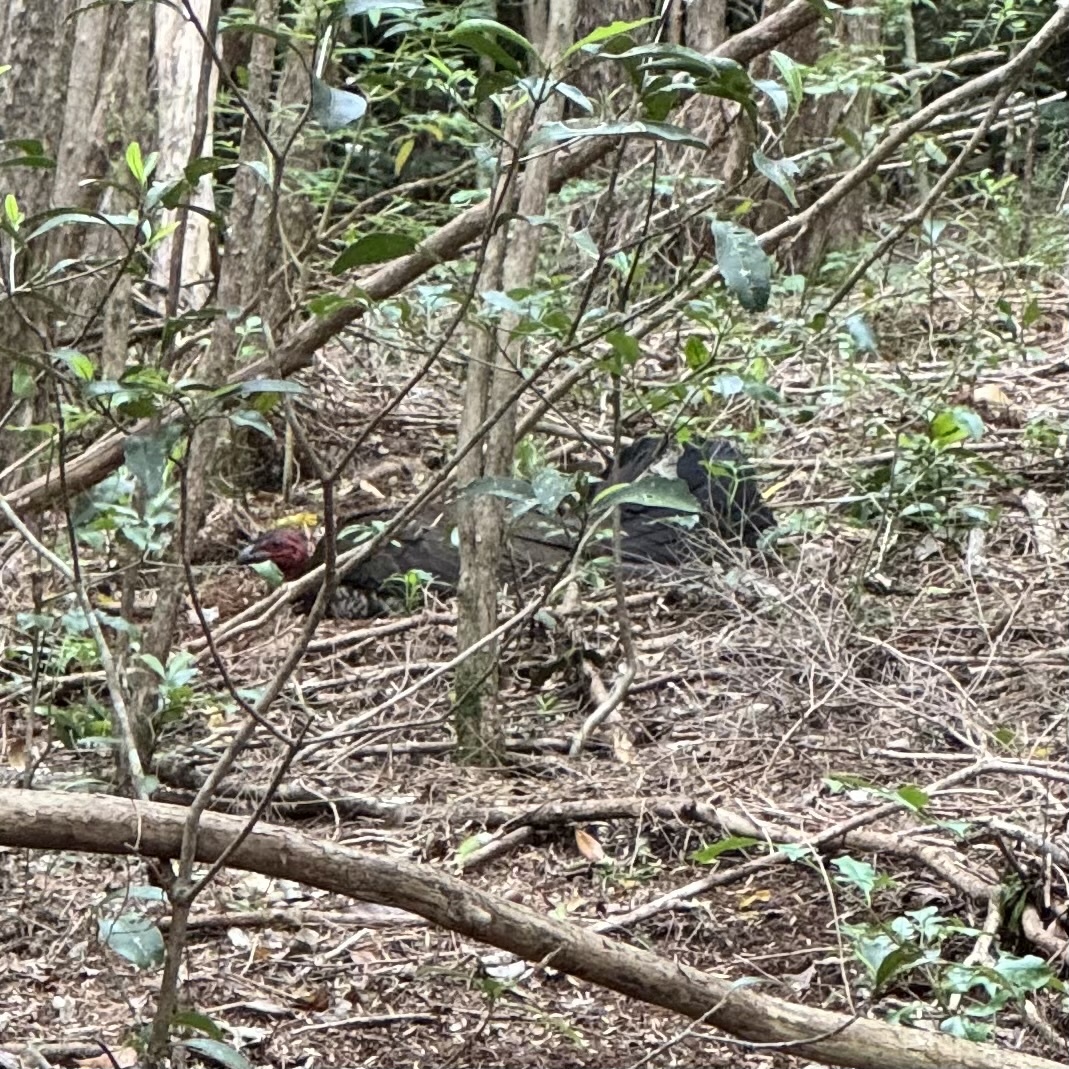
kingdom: Animalia
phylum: Chordata
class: Aves
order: Galliformes
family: Megapodiidae
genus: Alectura
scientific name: Alectura lathami
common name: Australian brushturkey
